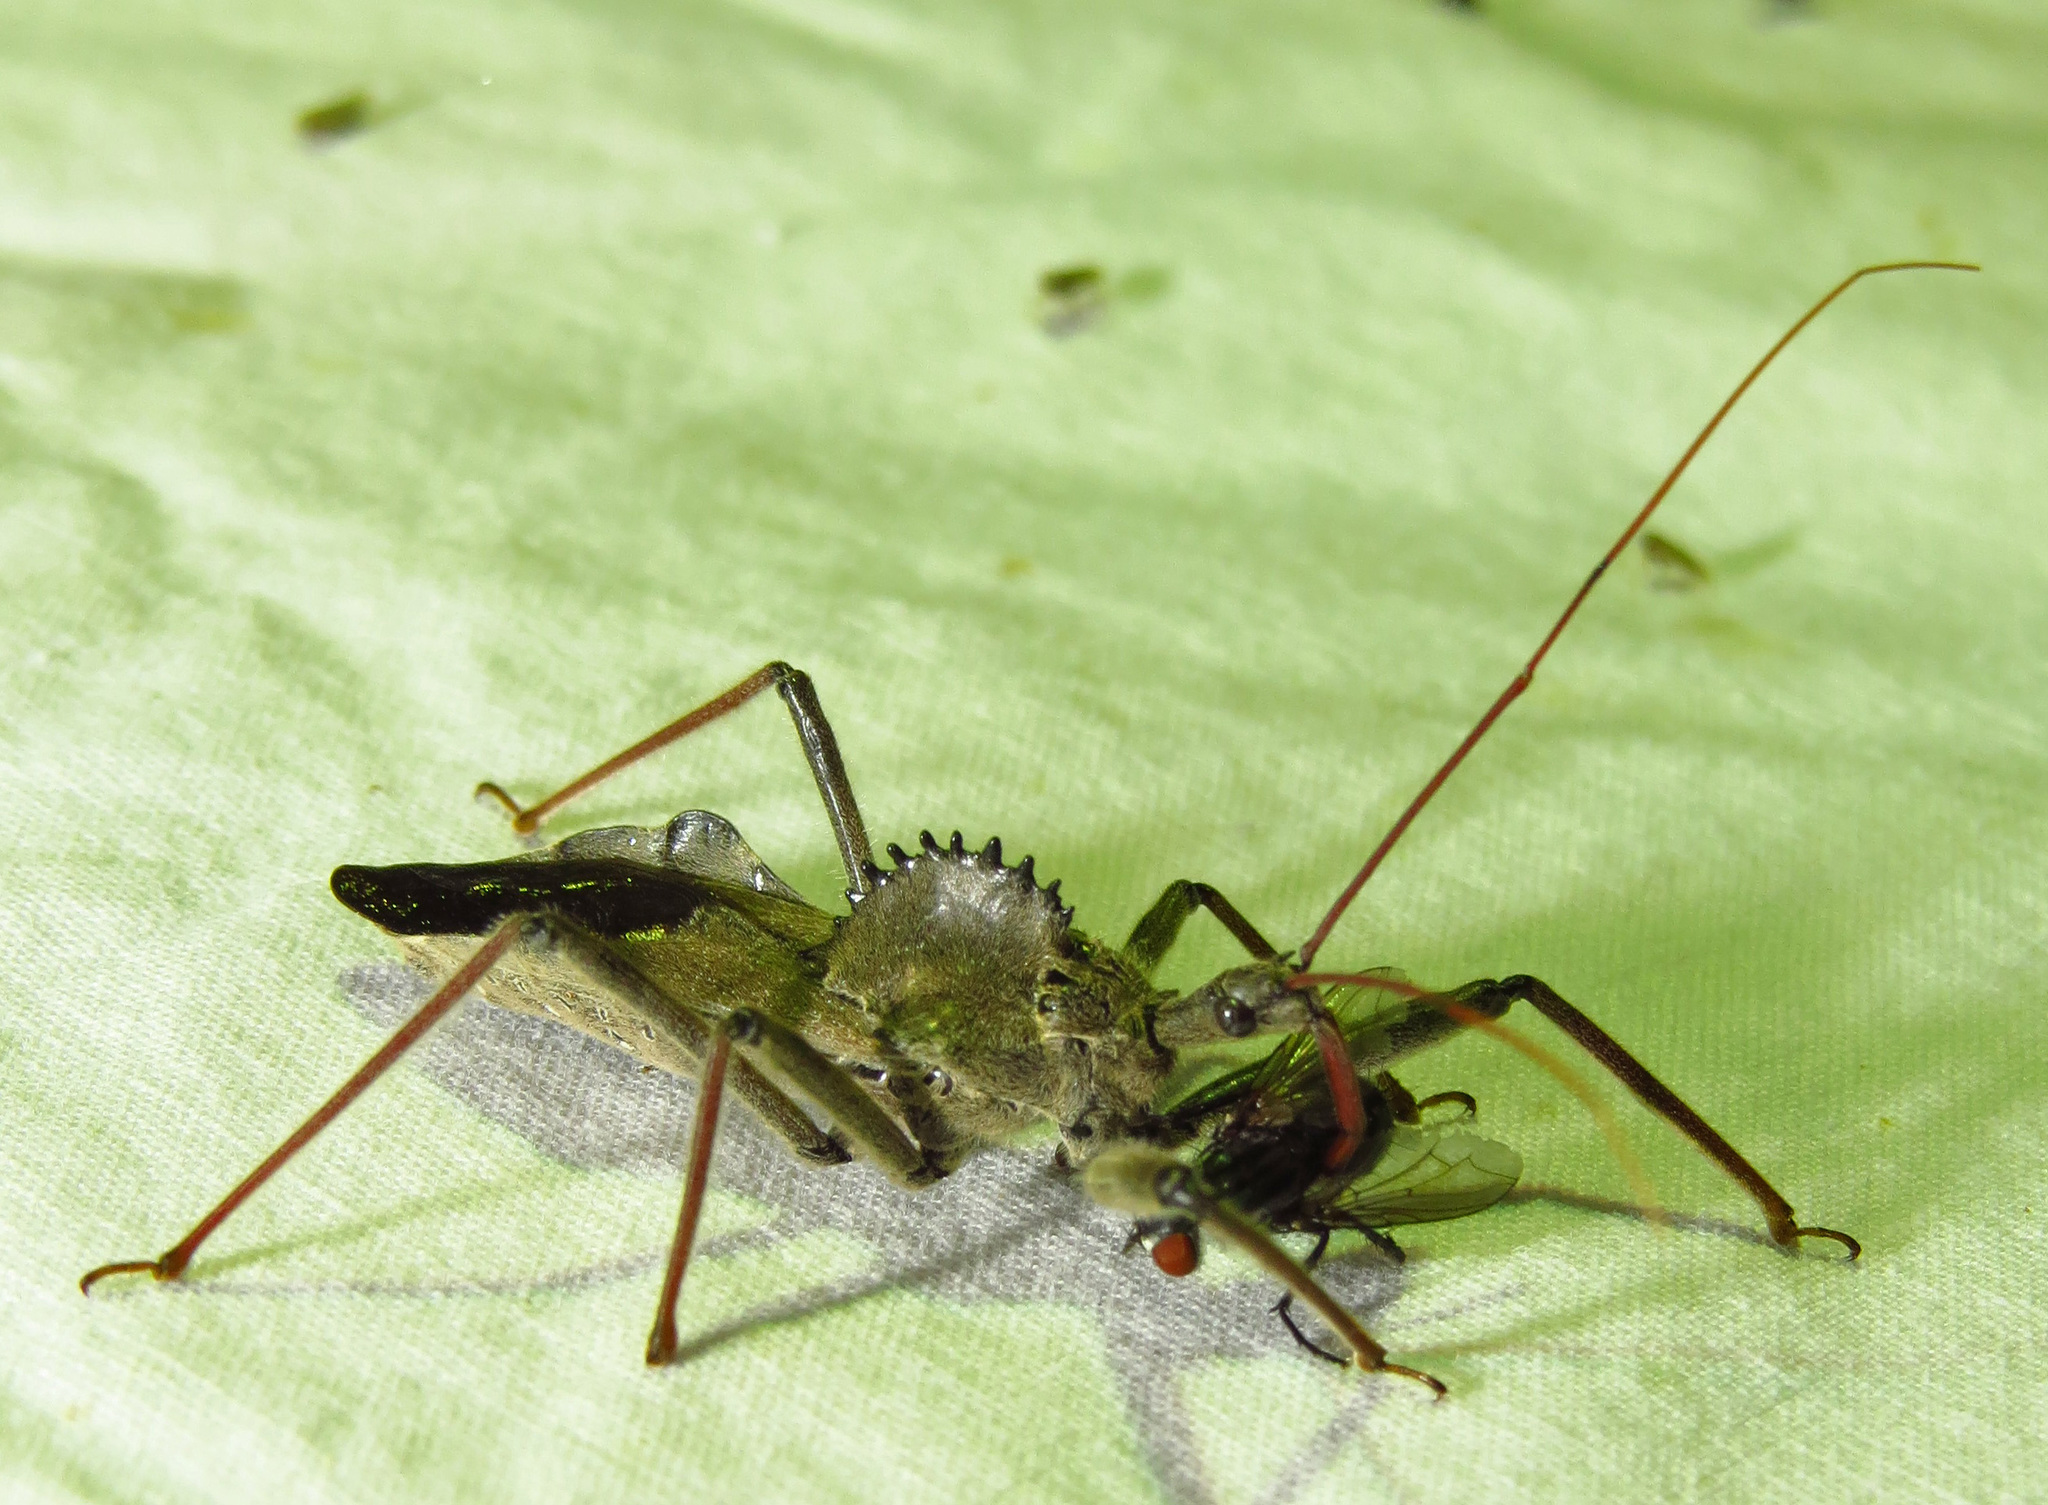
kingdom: Animalia
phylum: Arthropoda
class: Insecta
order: Hemiptera
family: Reduviidae
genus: Arilus
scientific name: Arilus cristatus
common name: North american wheel bug
